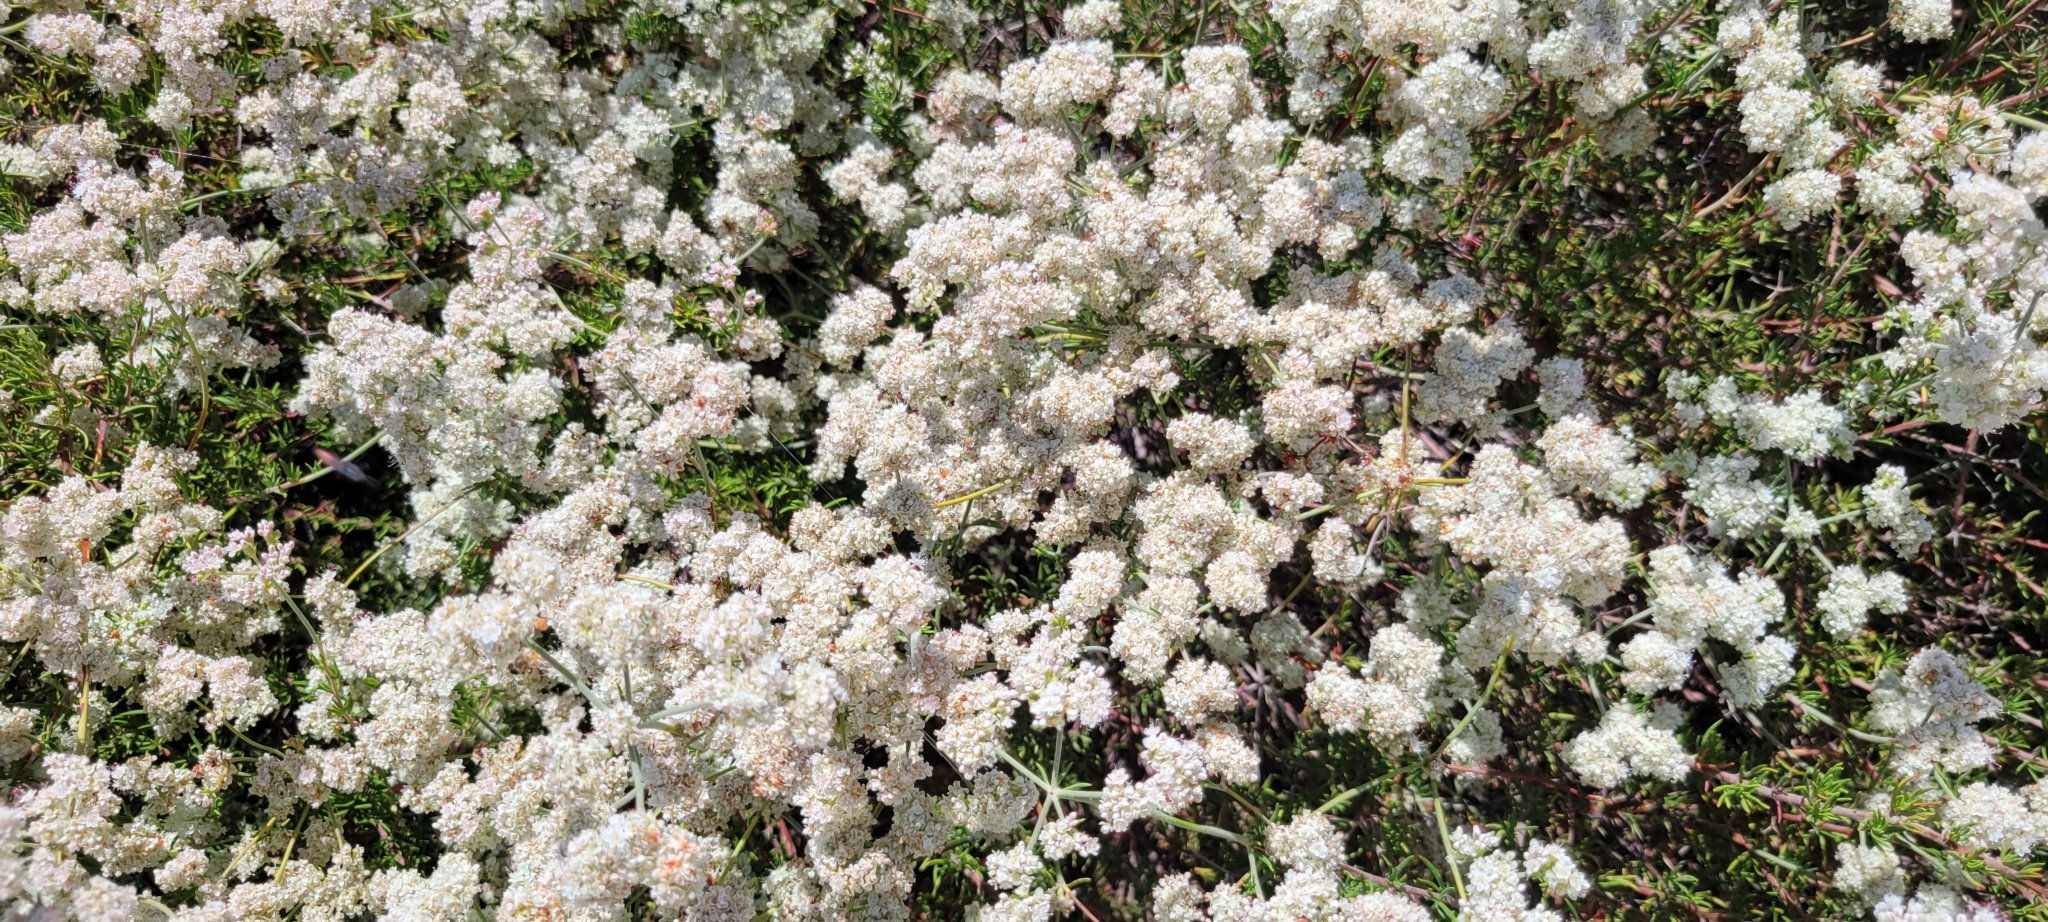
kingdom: Plantae
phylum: Tracheophyta
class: Magnoliopsida
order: Caryophyllales
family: Polygonaceae
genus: Eriogonum
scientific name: Eriogonum fasciculatum
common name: California wild buckwheat
